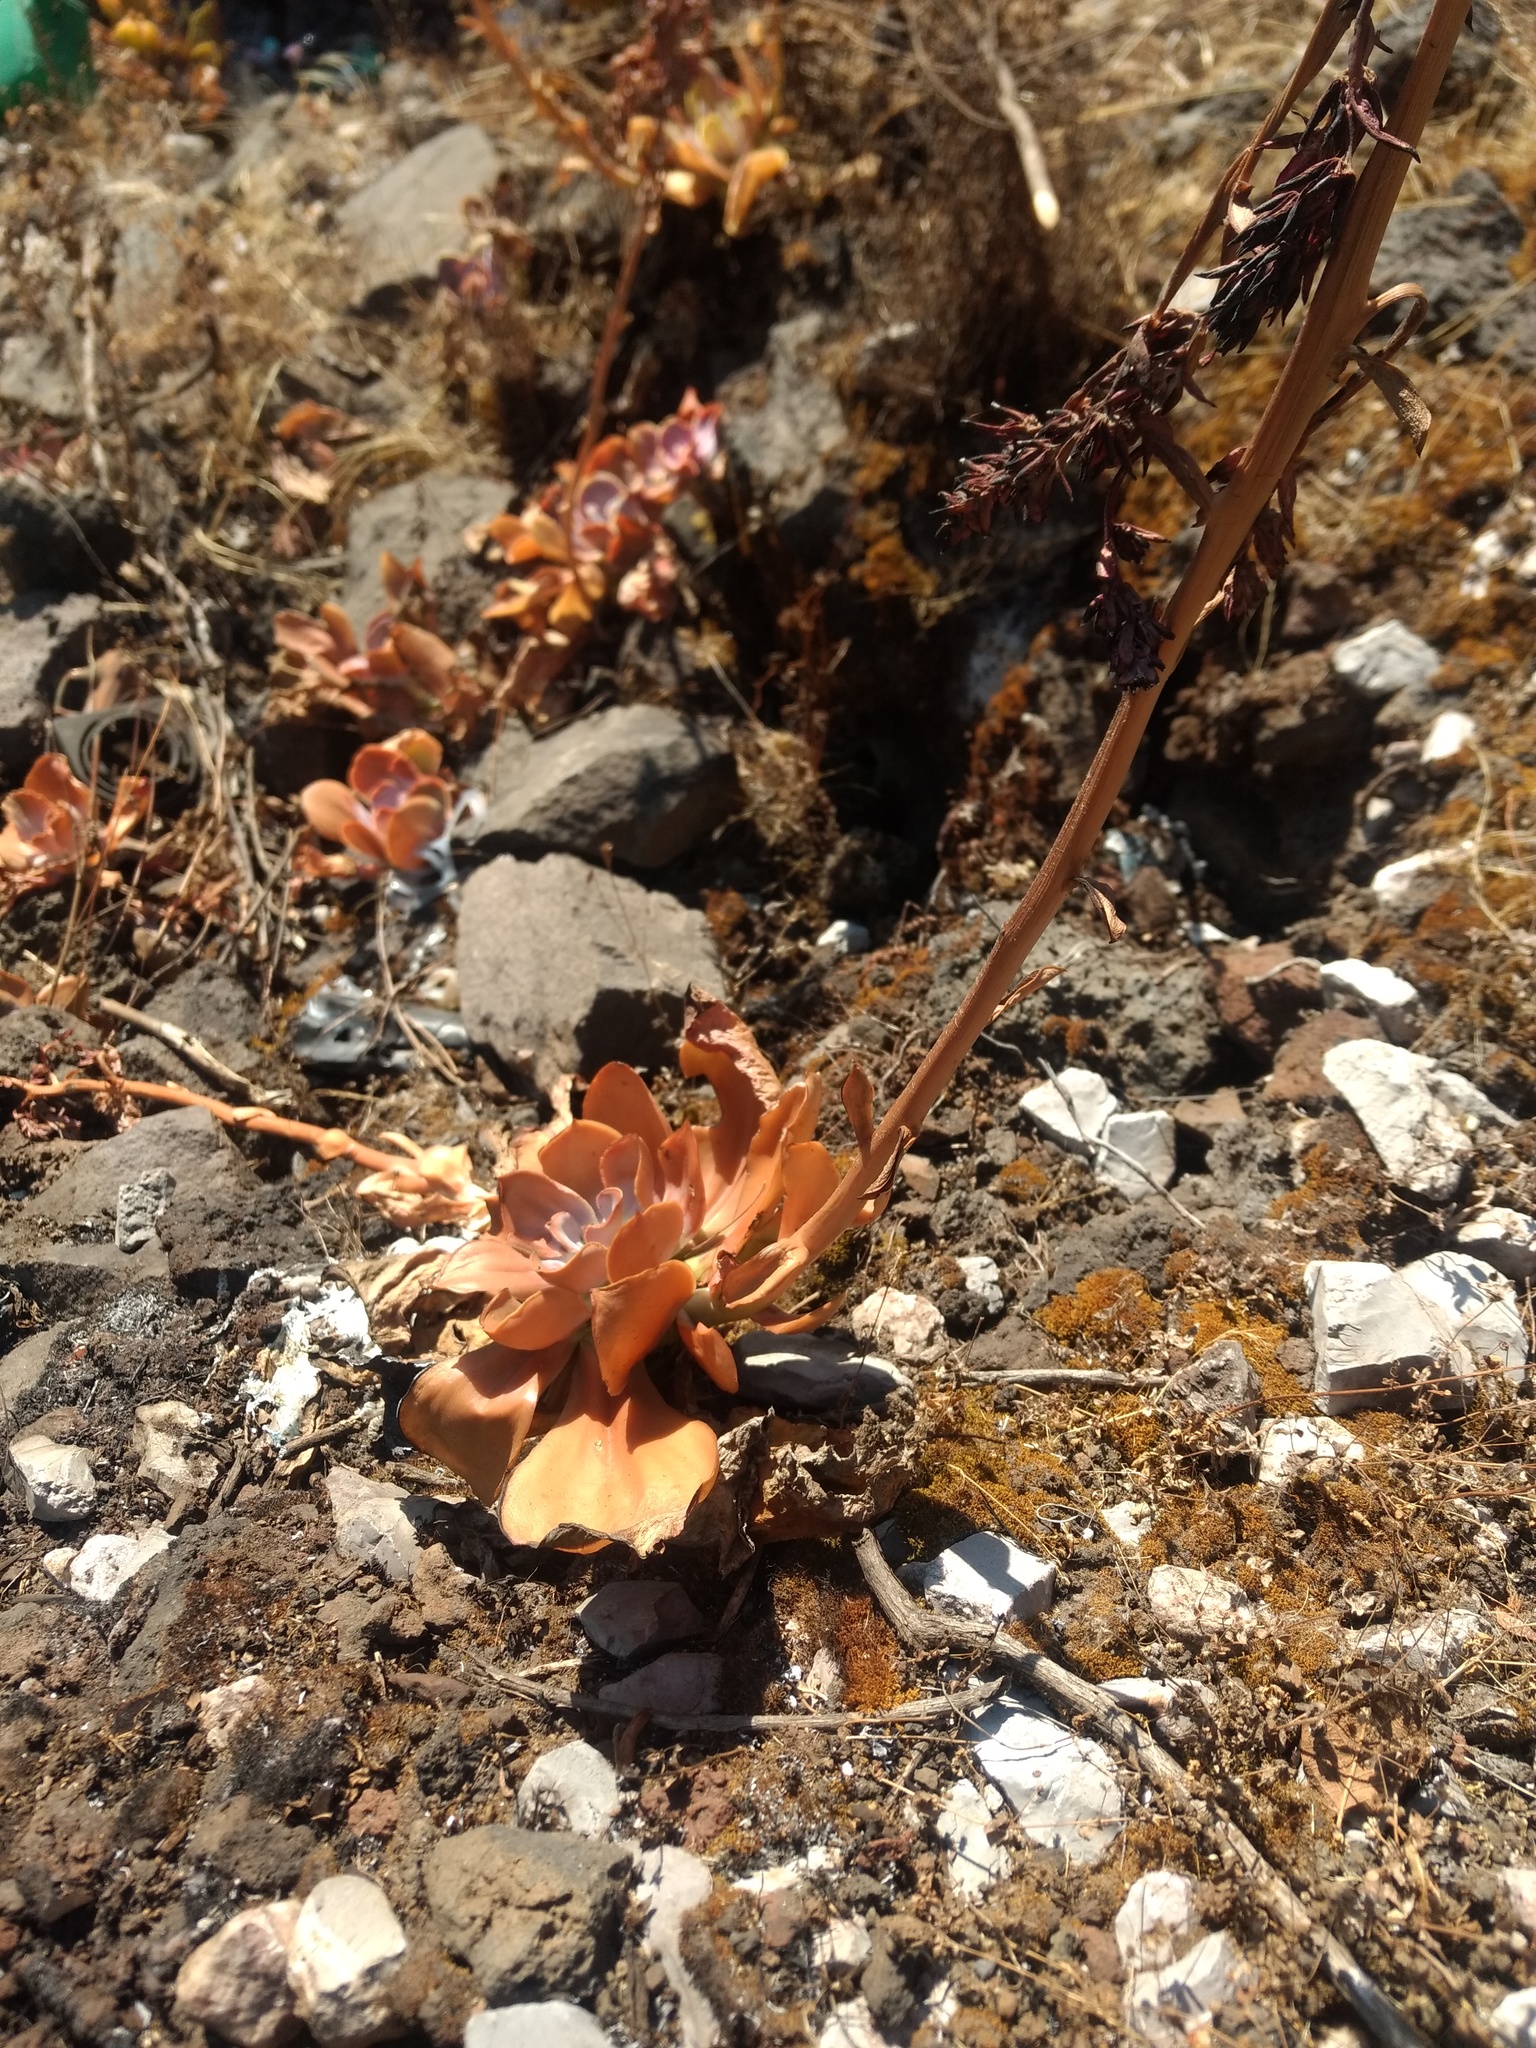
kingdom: Plantae
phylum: Tracheophyta
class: Magnoliopsida
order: Saxifragales
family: Crassulaceae
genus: Echeveria
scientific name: Echeveria gibbiflora
